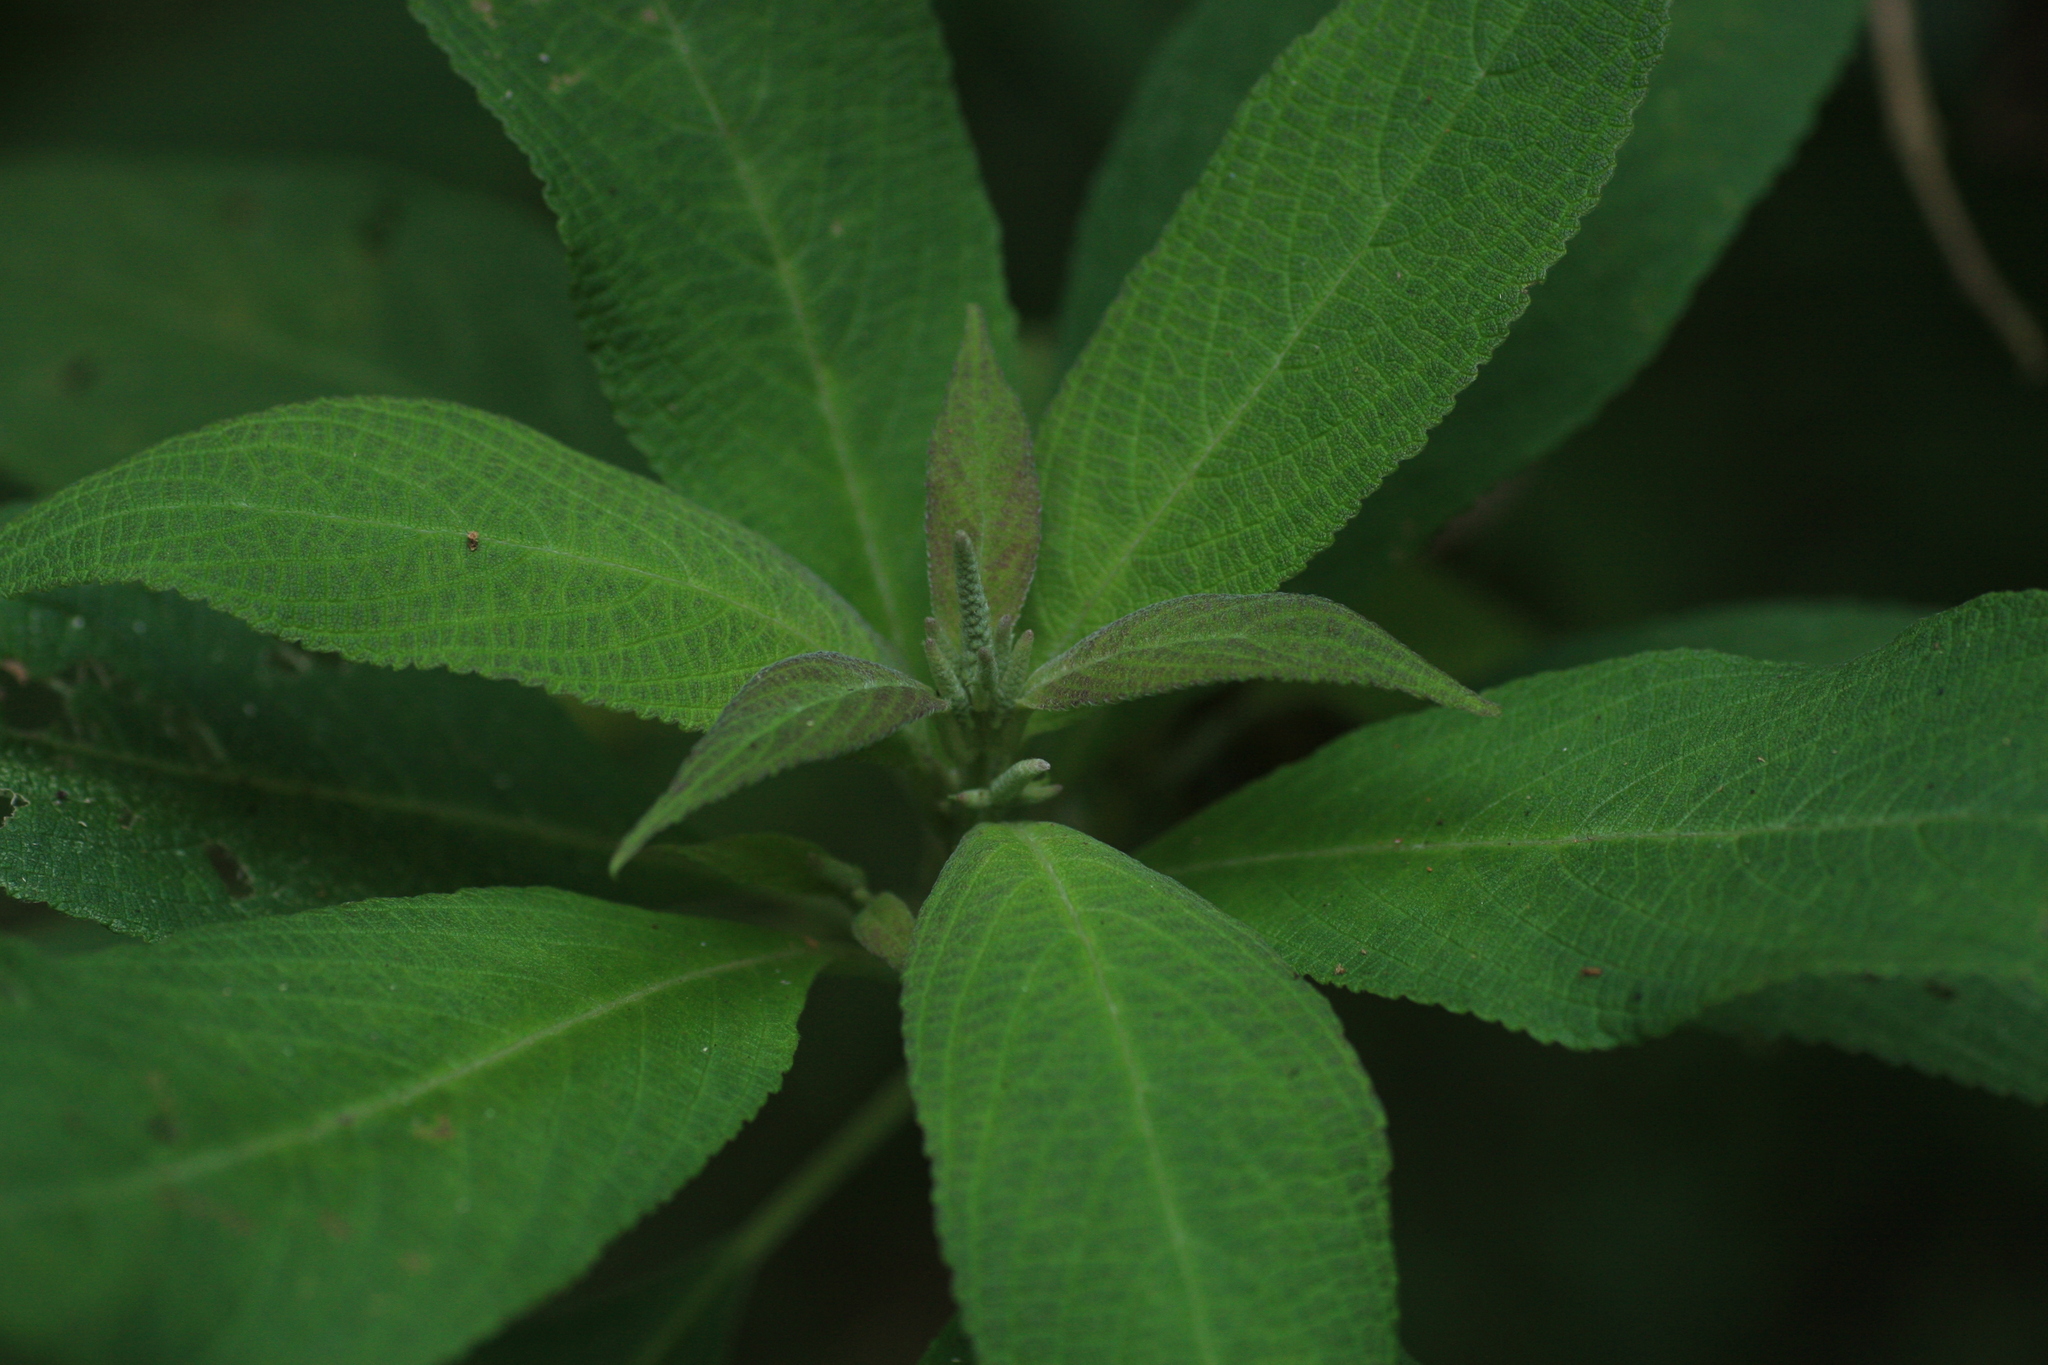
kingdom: Plantae
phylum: Tracheophyta
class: Magnoliopsida
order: Lamiales
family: Lamiaceae
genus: Colebrookea
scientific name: Colebrookea oppositifolia
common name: Indian squirrel tail
